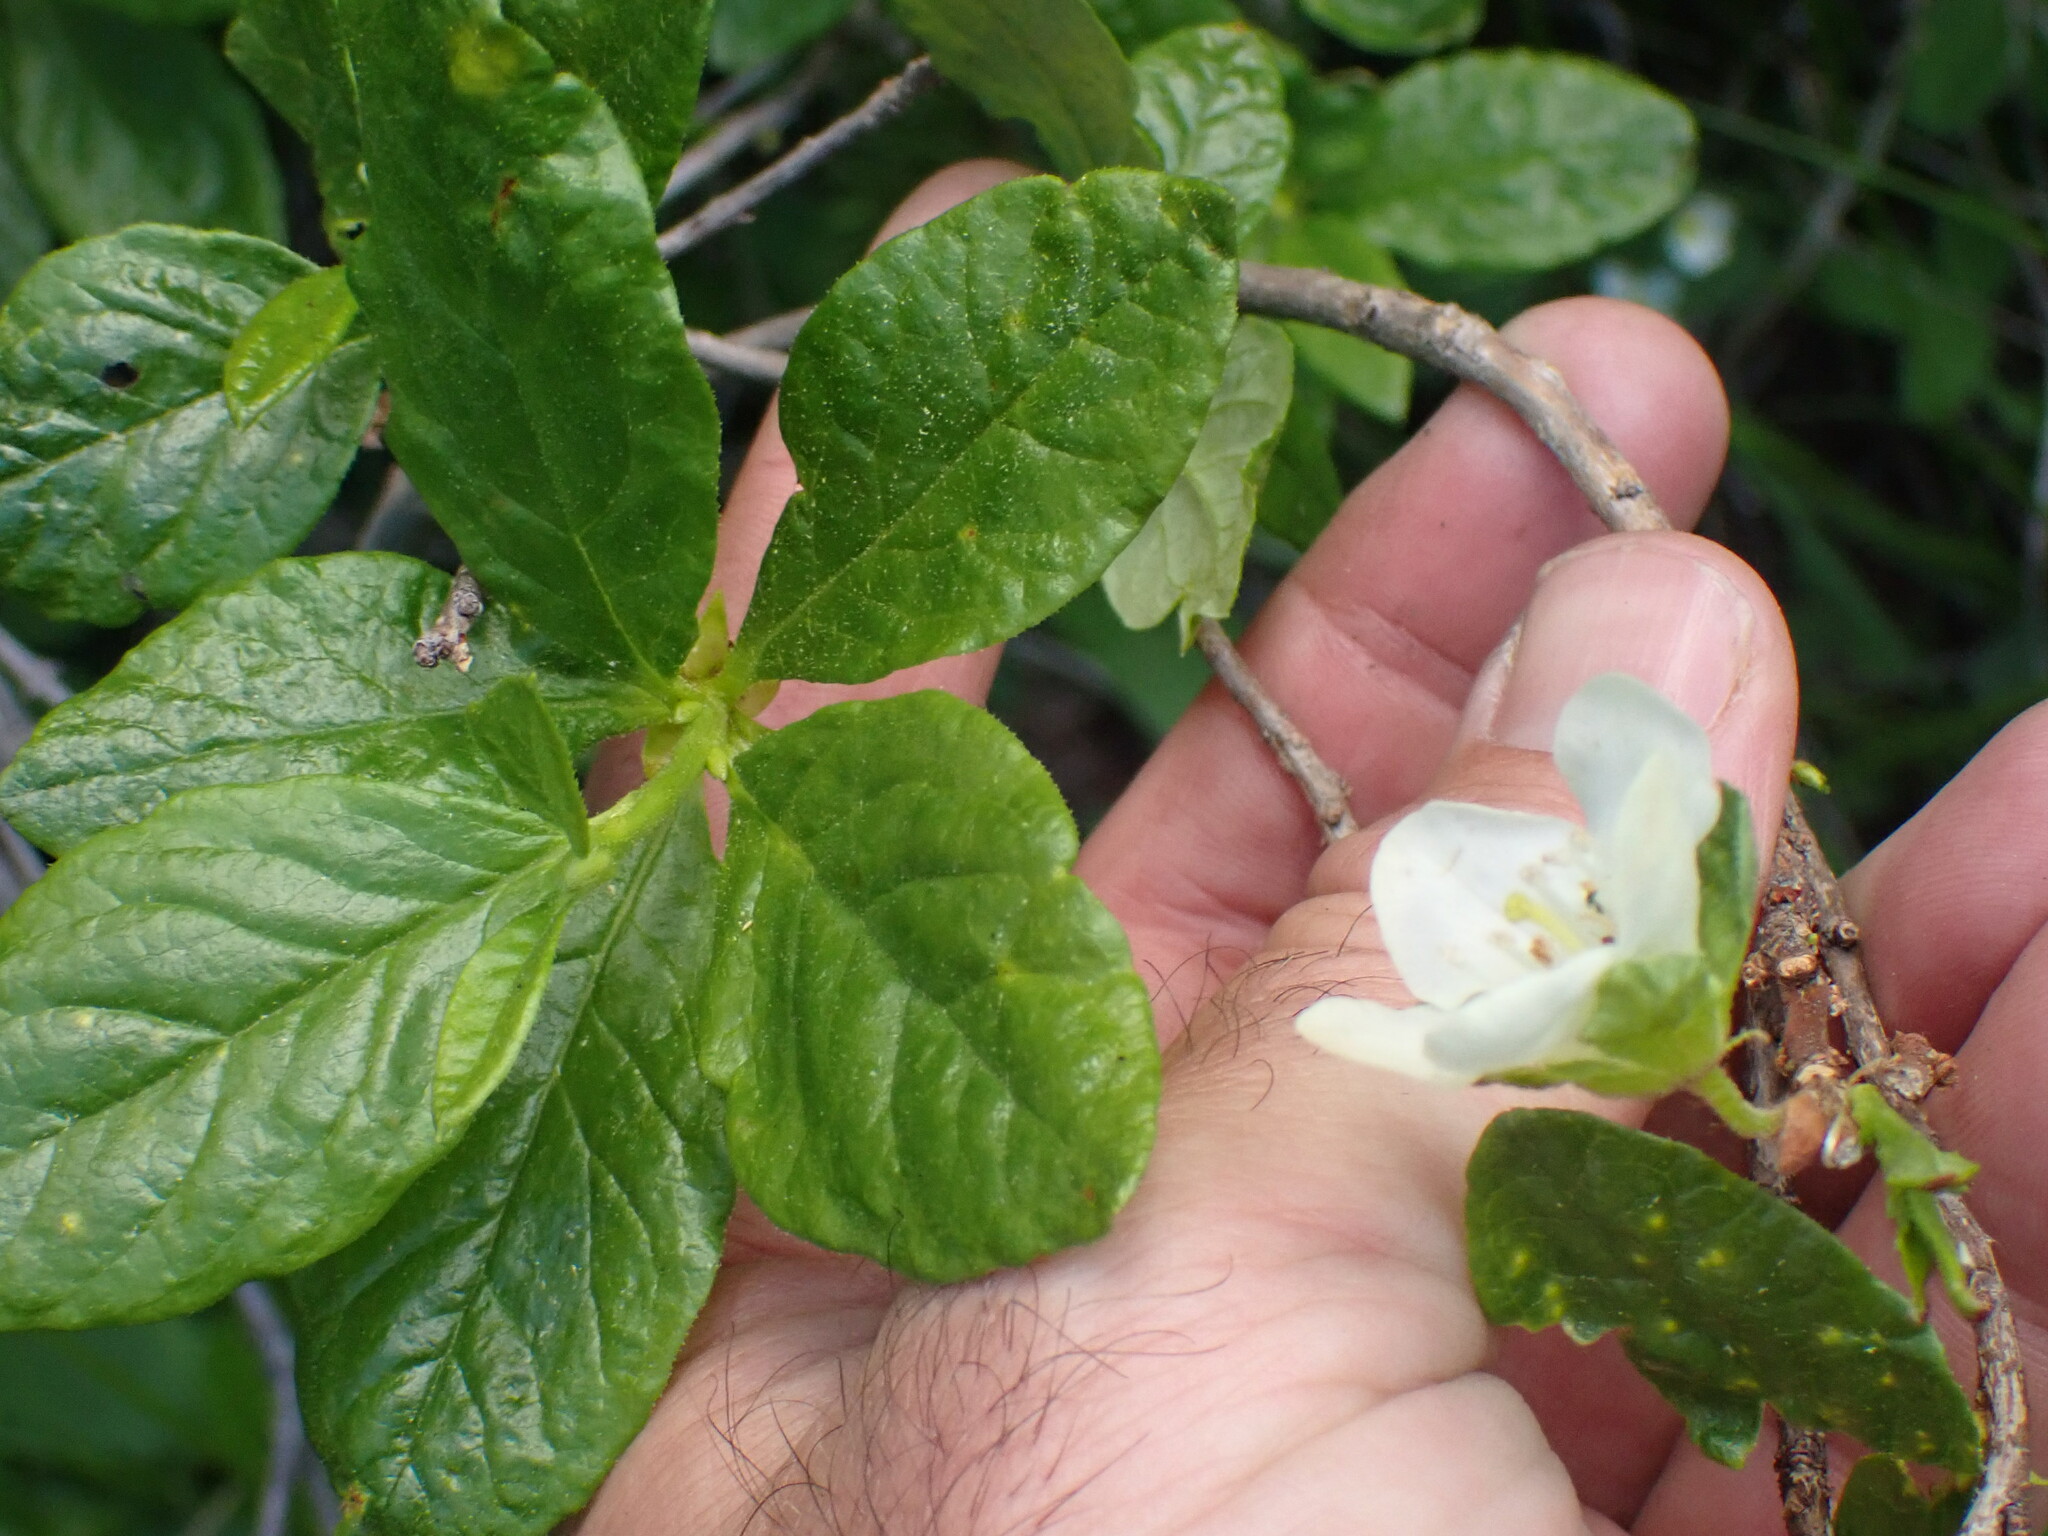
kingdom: Plantae
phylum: Tracheophyta
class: Magnoliopsida
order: Ericales
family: Ericaceae
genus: Rhododendron
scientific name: Rhododendron albiflorum
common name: White rhododendron
